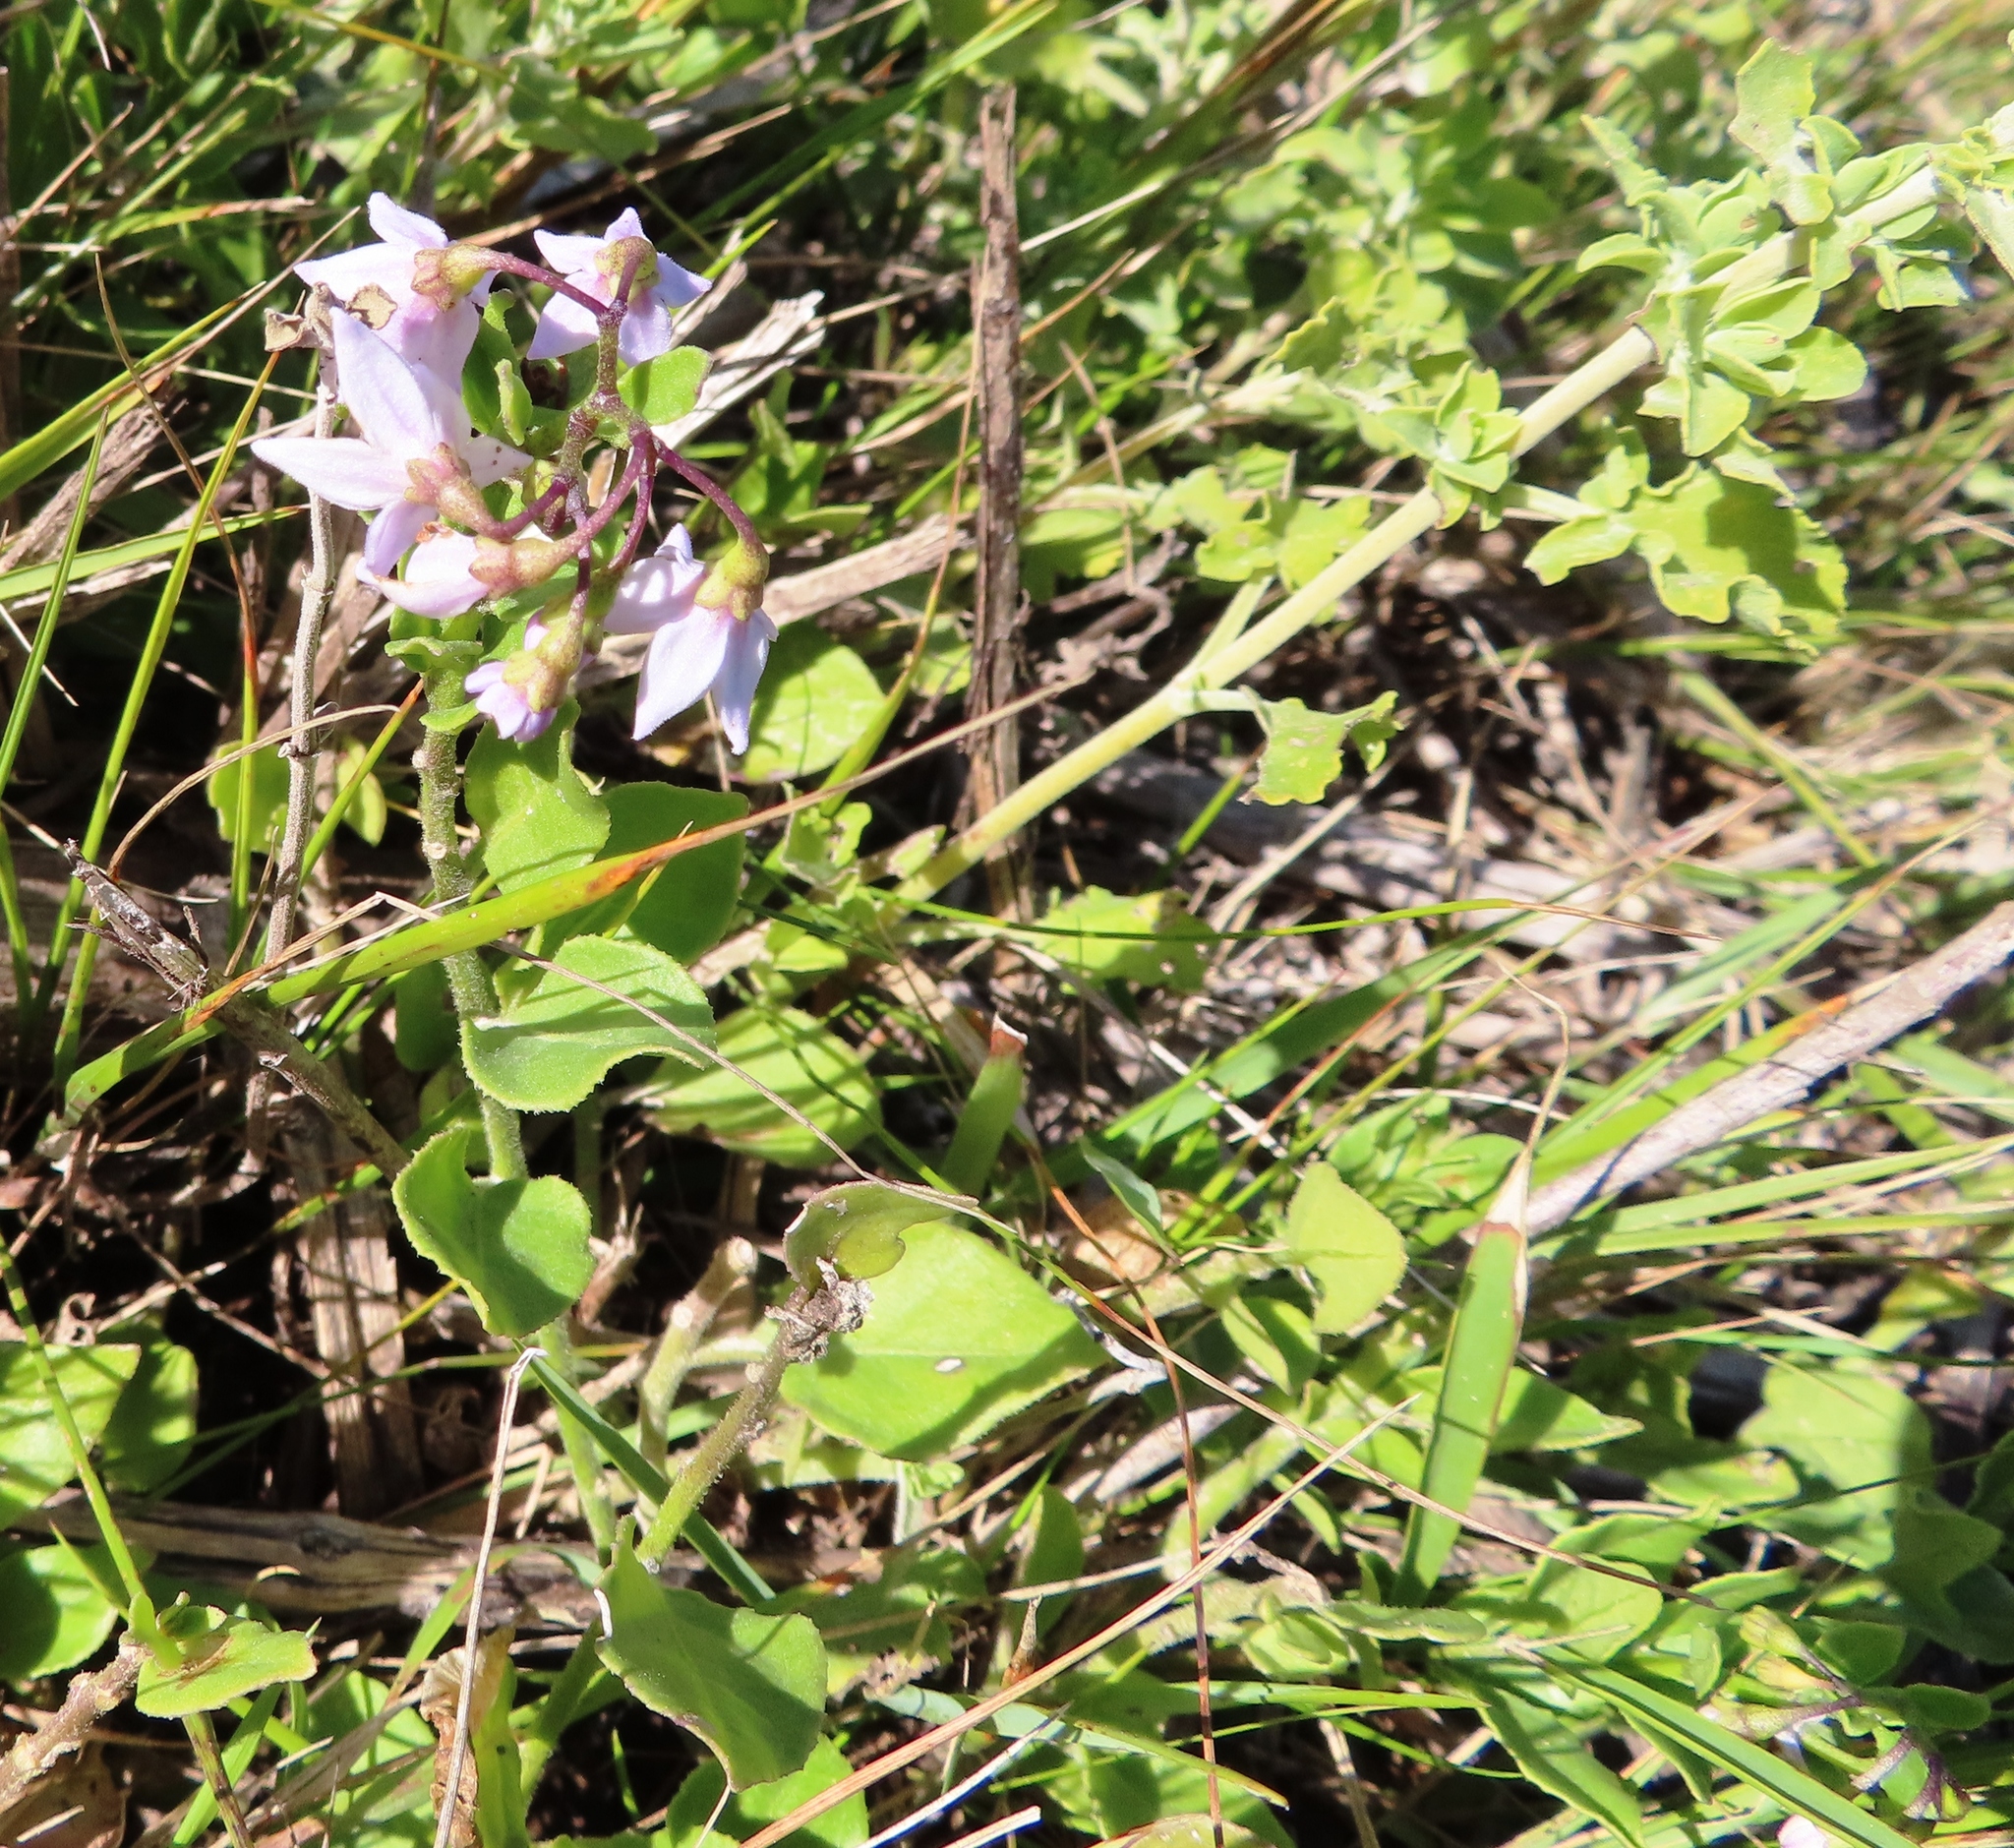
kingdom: Plantae
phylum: Tracheophyta
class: Magnoliopsida
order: Solanales
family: Solanaceae
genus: Solanum
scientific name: Solanum africanum
